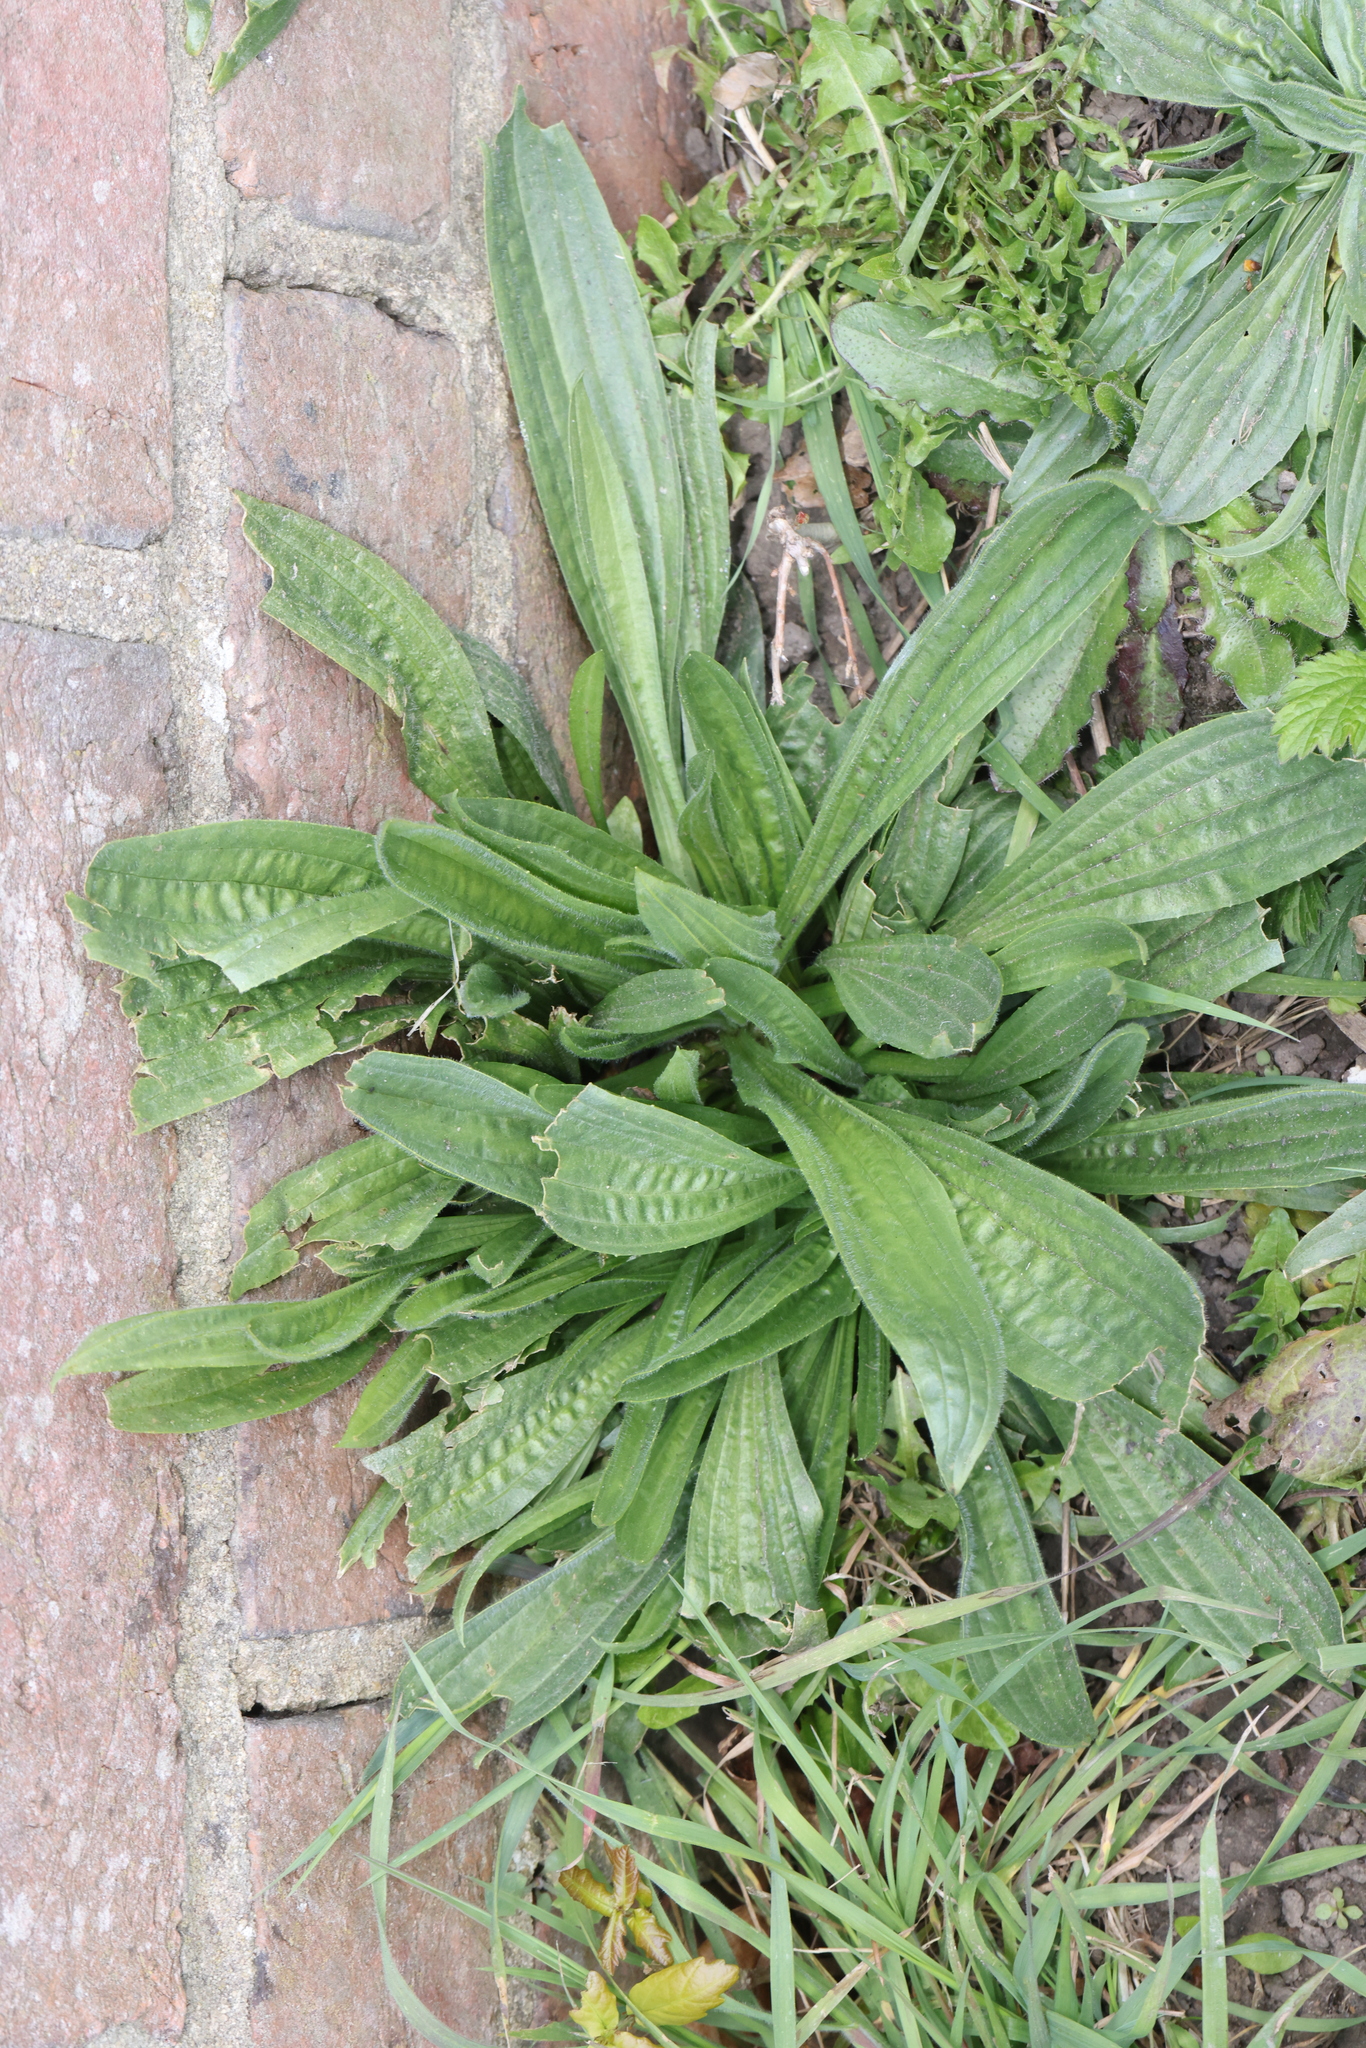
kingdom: Plantae
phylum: Tracheophyta
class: Magnoliopsida
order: Lamiales
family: Plantaginaceae
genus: Plantago
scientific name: Plantago lanceolata
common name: Ribwort plantain
